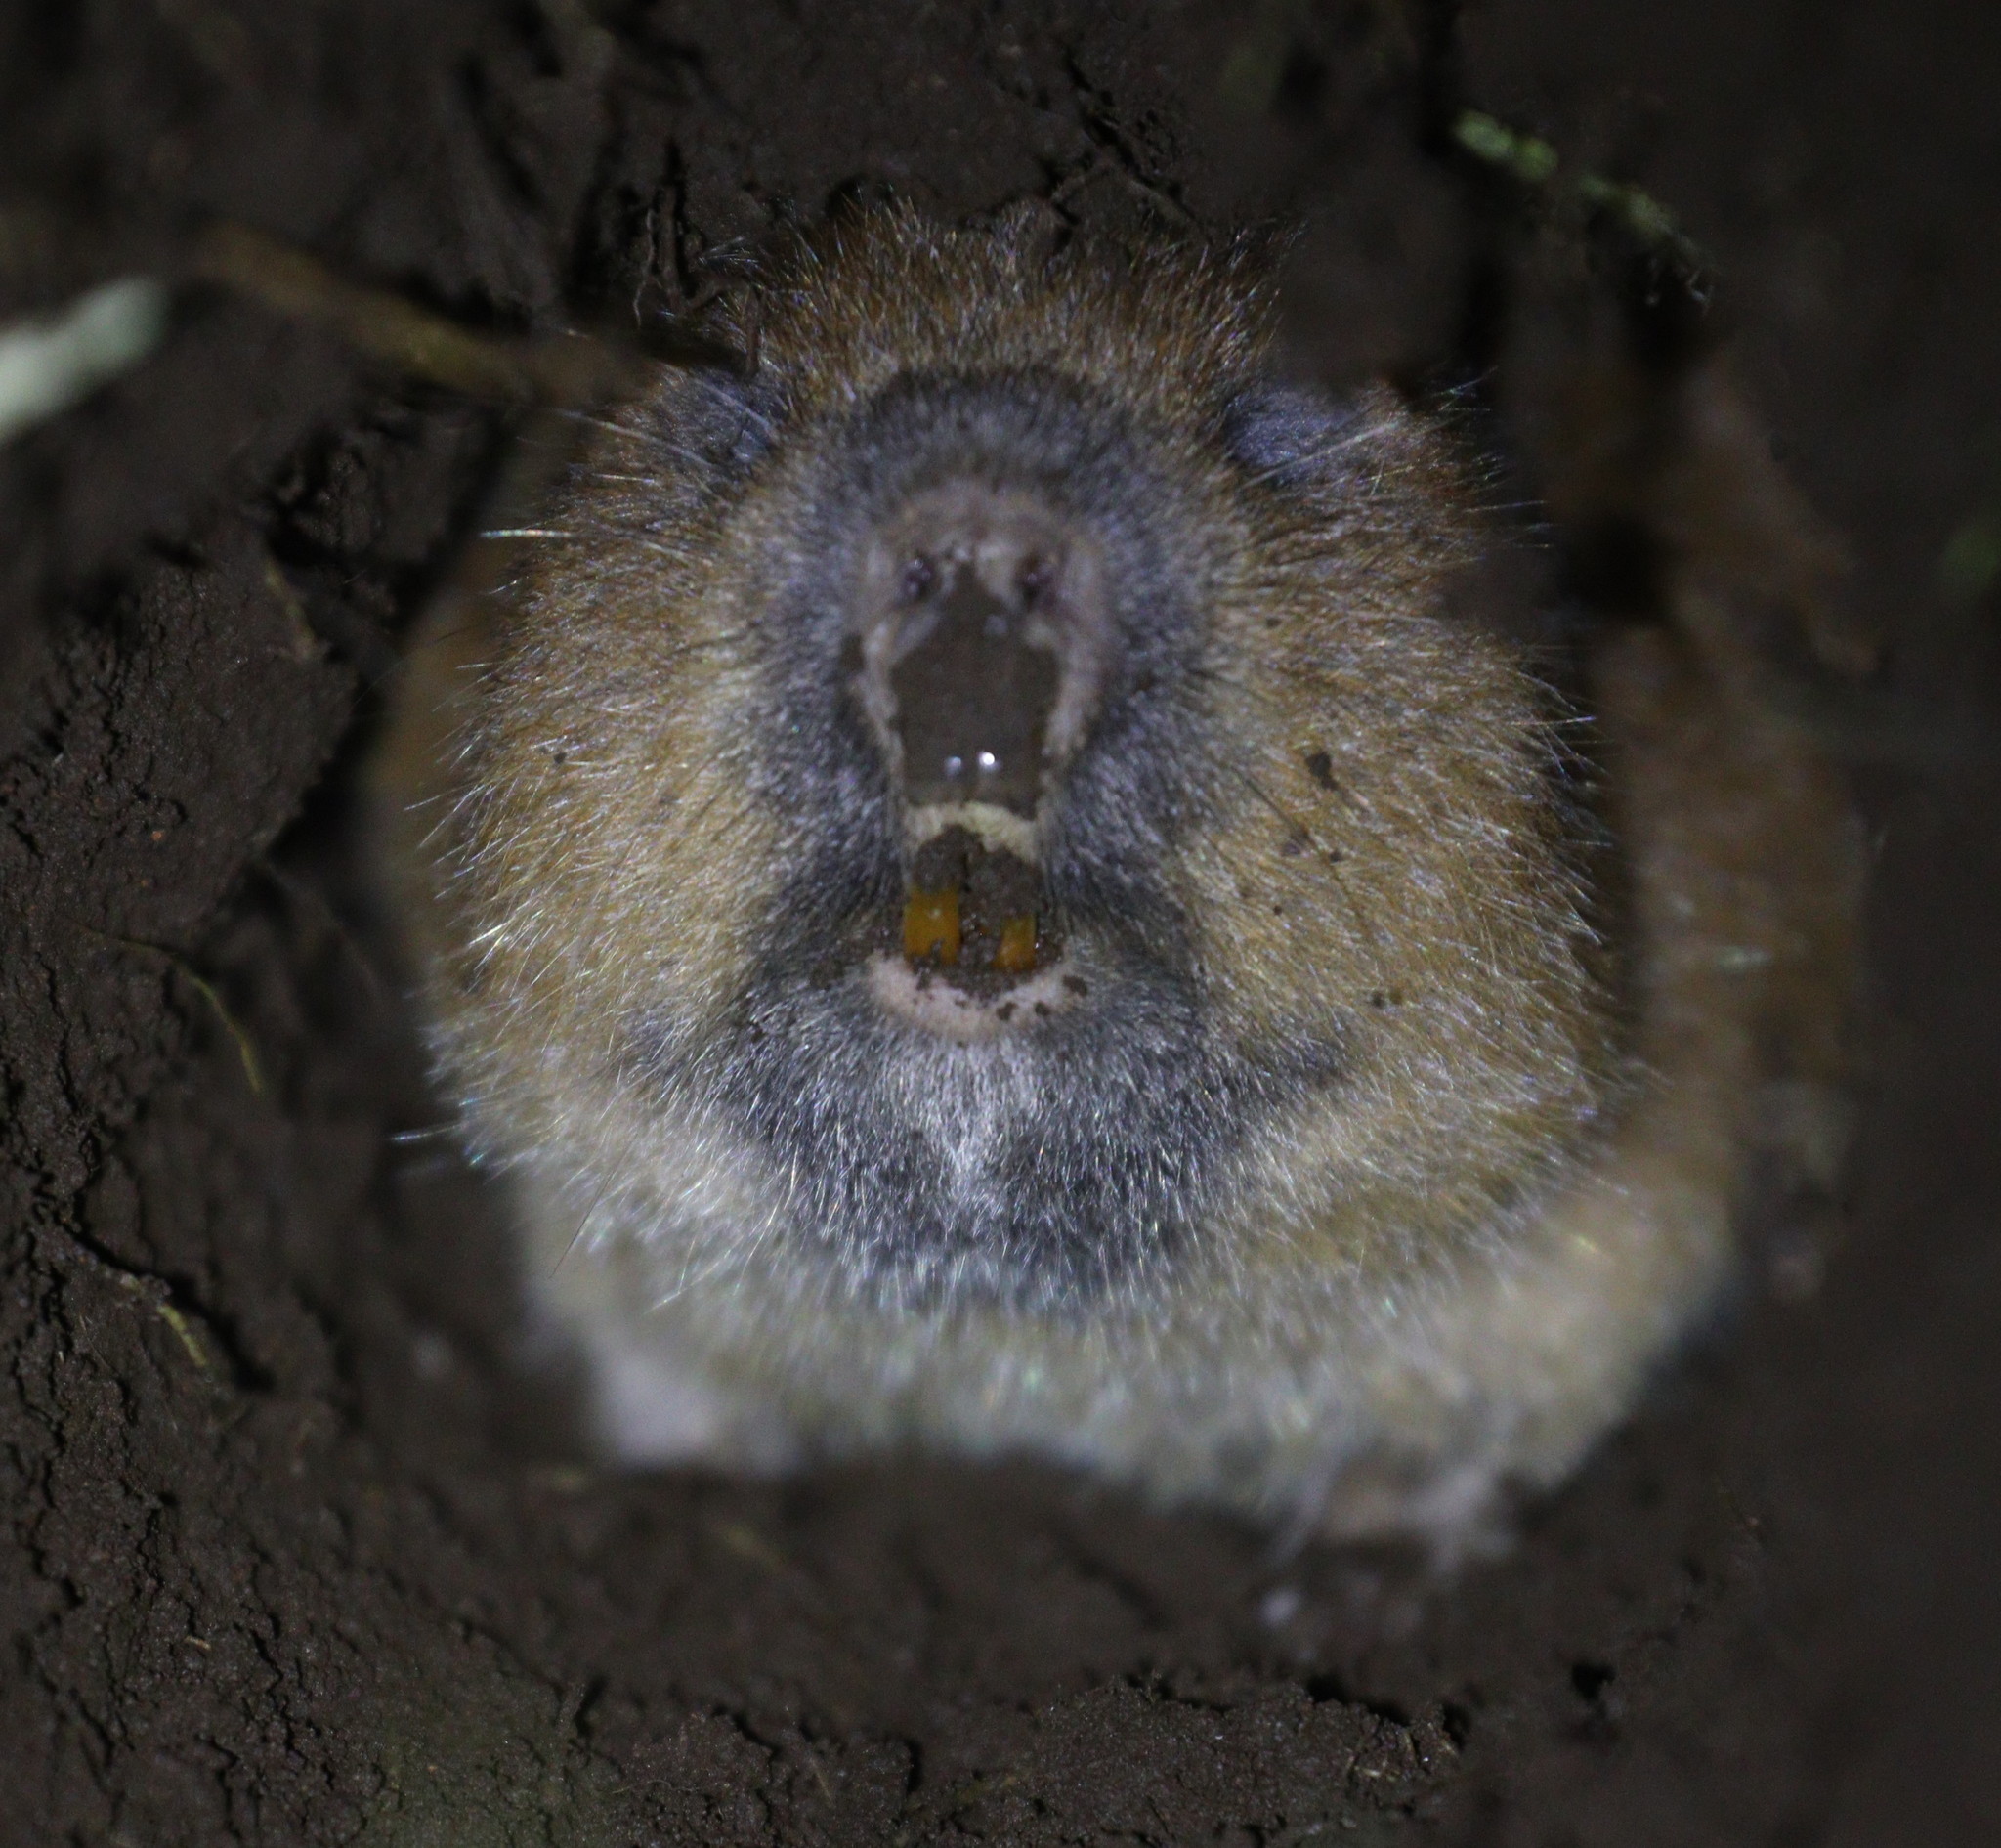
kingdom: Animalia
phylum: Chordata
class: Mammalia
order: Rodentia
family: Spalacidae
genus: Tachyoryctes
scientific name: Tachyoryctes splendens
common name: Northeast african mole rat
